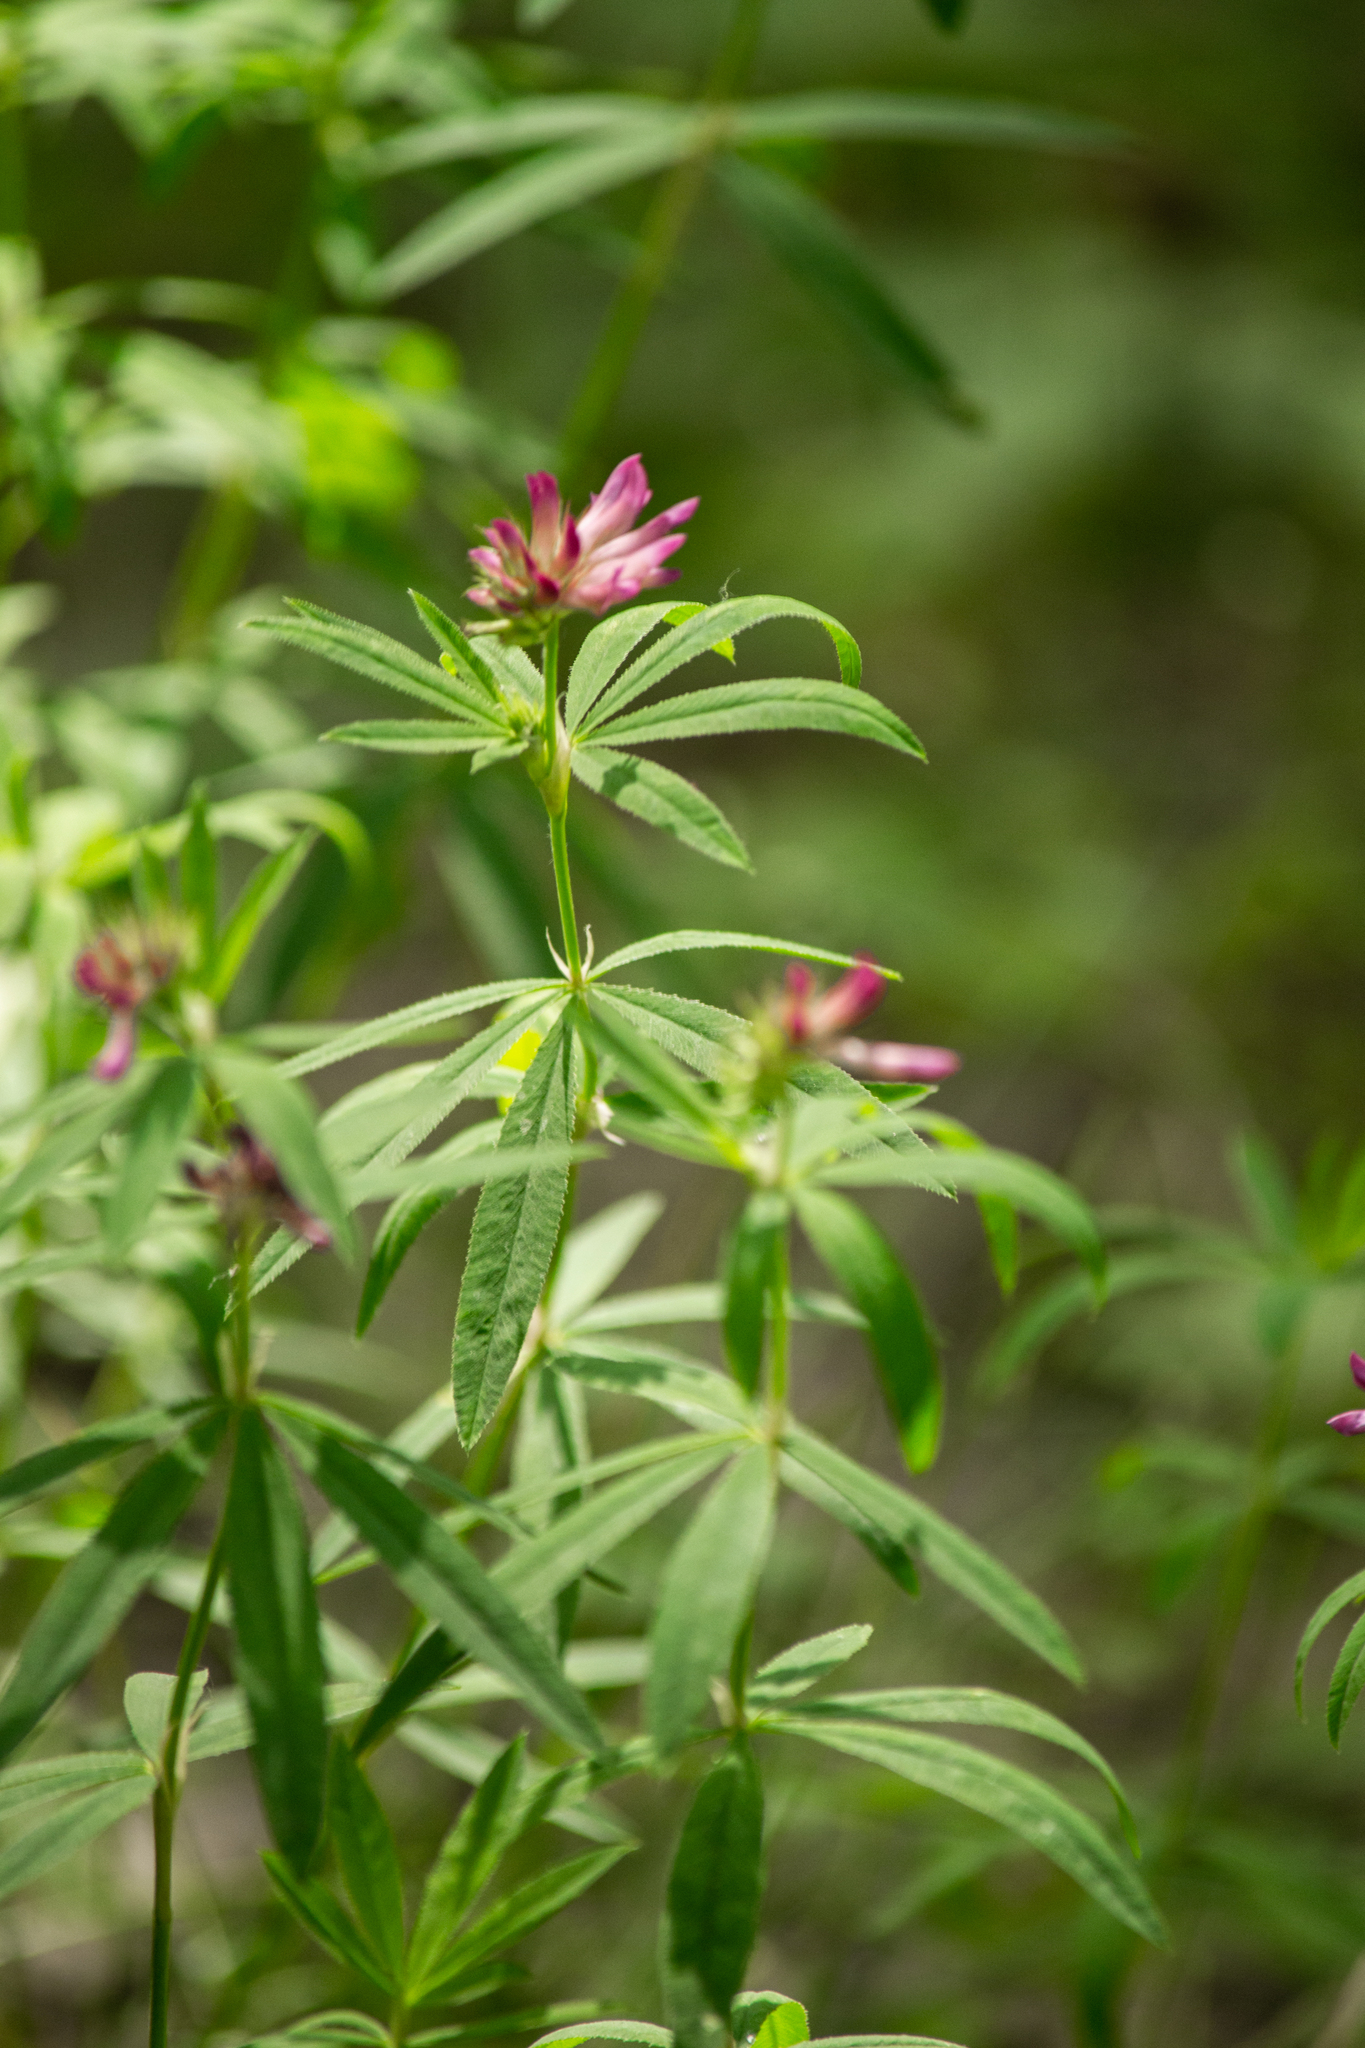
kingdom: Plantae
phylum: Tracheophyta
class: Magnoliopsida
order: Fabales
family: Fabaceae
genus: Trifolium
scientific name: Trifolium lupinaster
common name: Lupine clover
